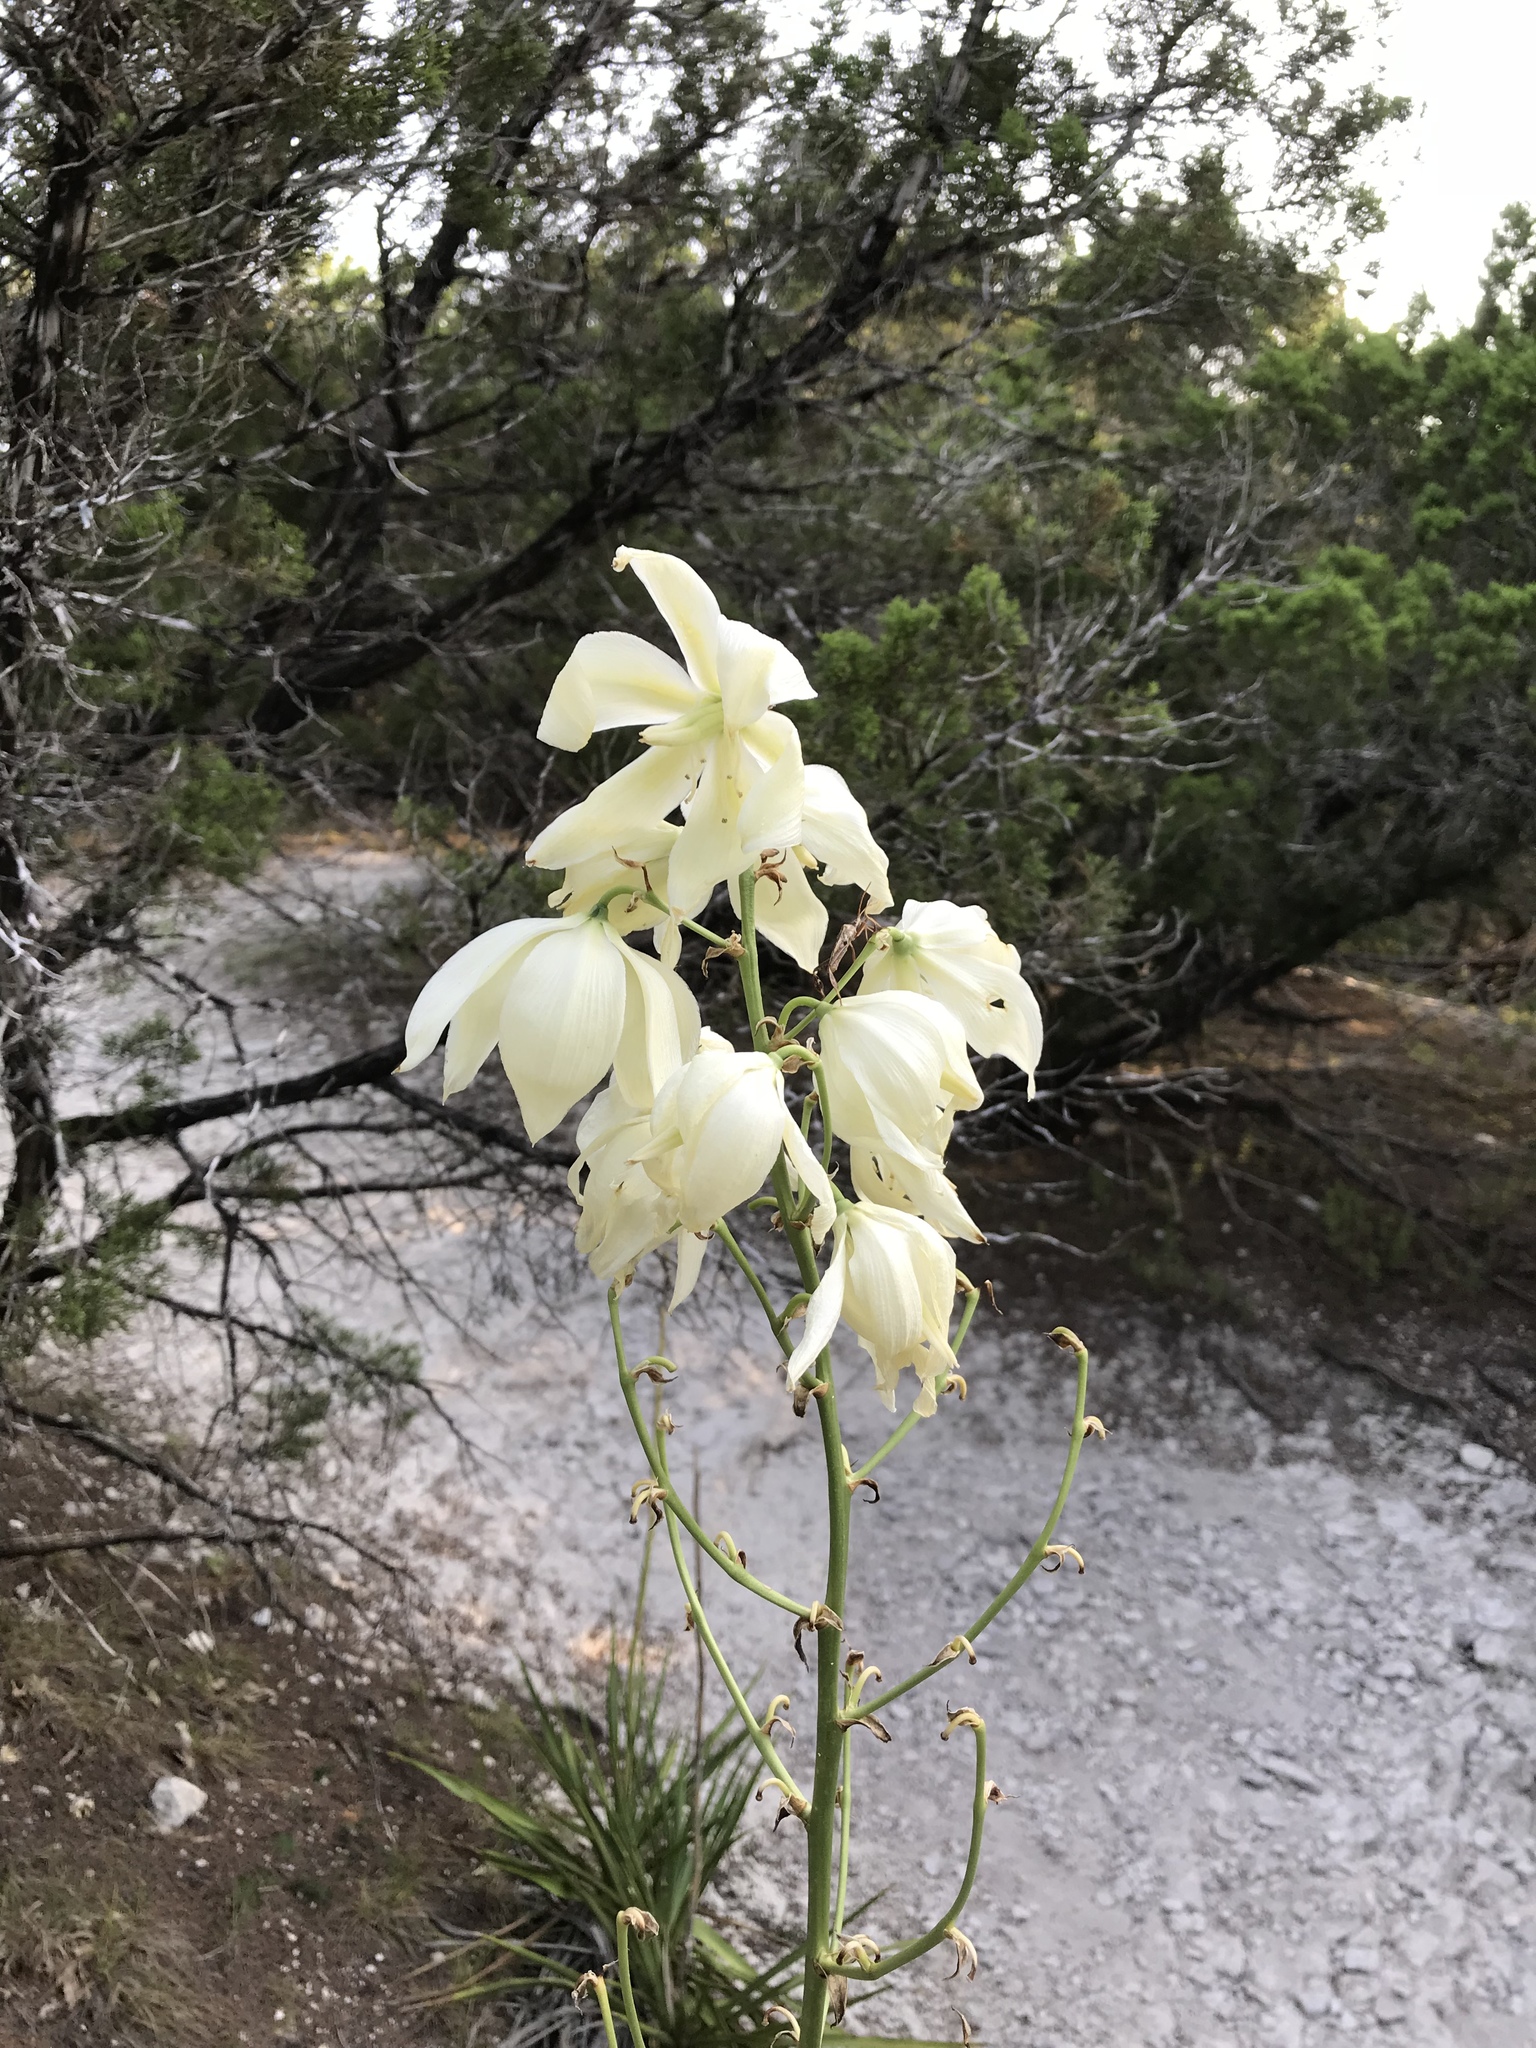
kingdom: Plantae
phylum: Tracheophyta
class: Liliopsida
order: Asparagales
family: Asparagaceae
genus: Yucca
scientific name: Yucca rupicola
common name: Twisted-leaf spanish-dagger
